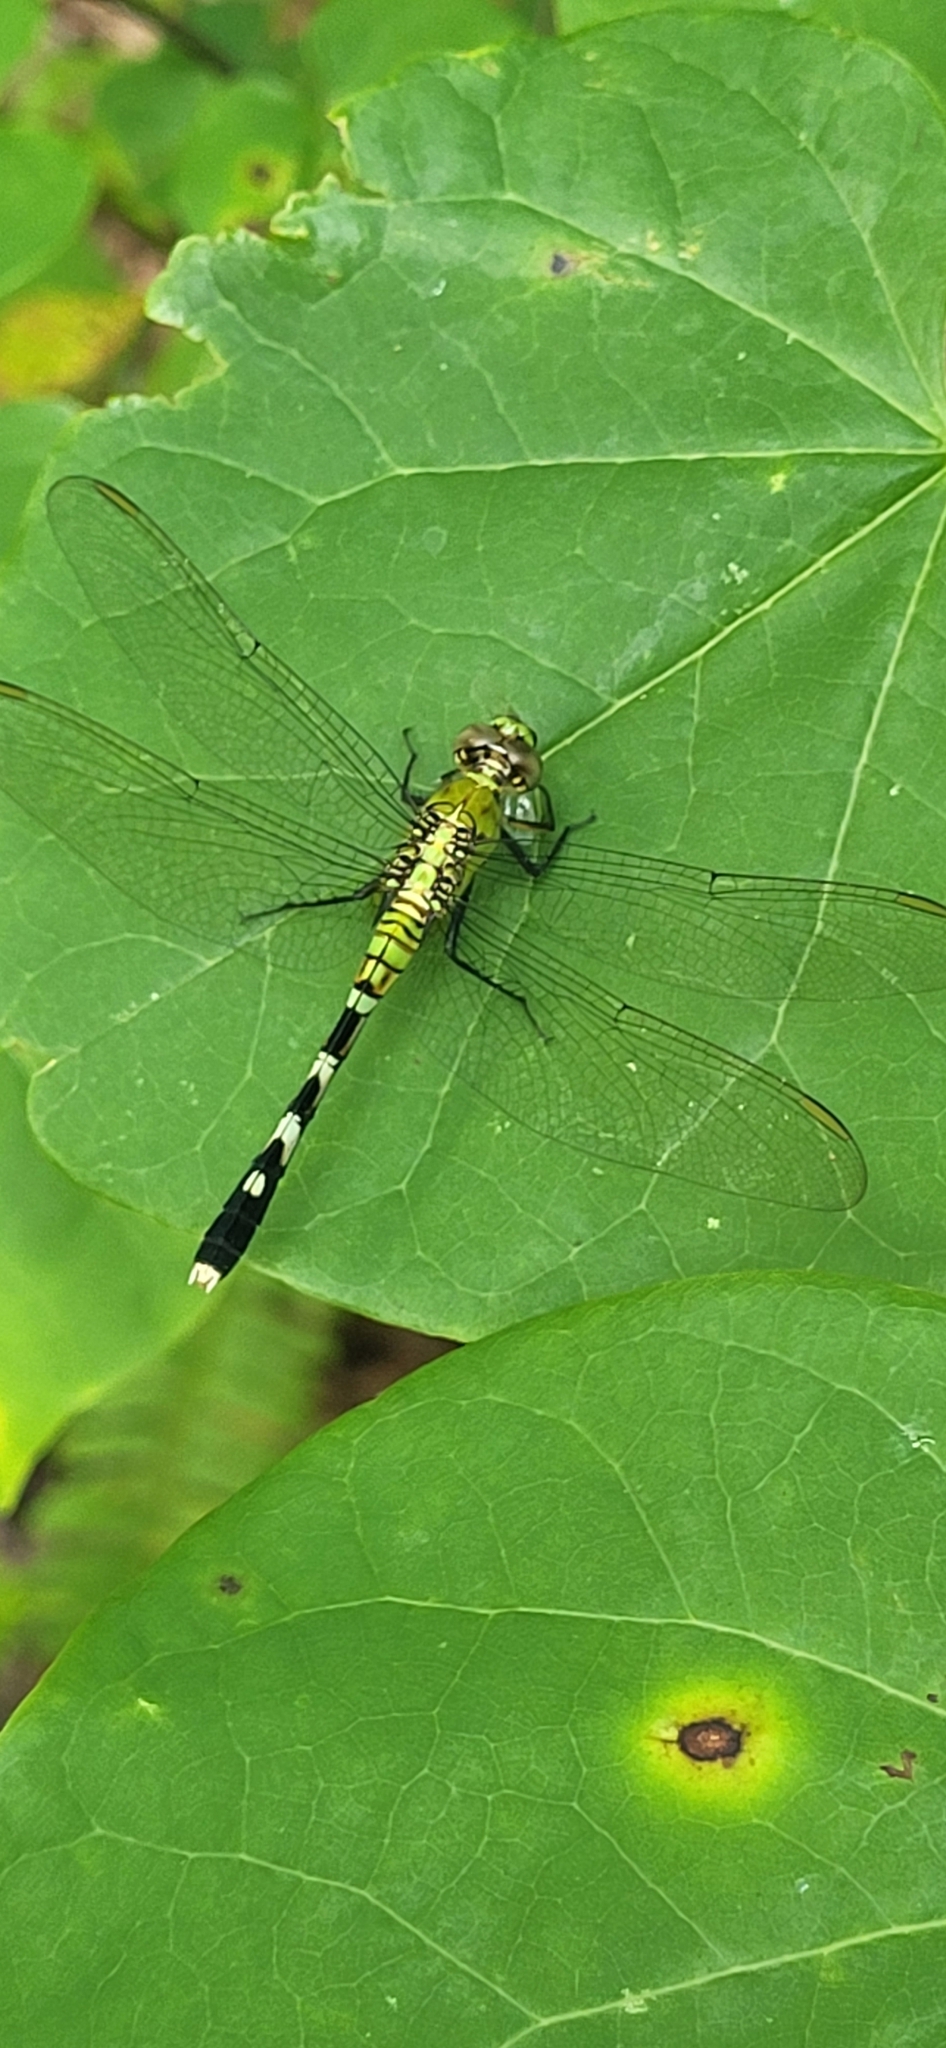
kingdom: Animalia
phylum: Arthropoda
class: Insecta
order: Odonata
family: Libellulidae
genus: Erythemis
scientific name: Erythemis simplicicollis
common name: Eastern pondhawk
